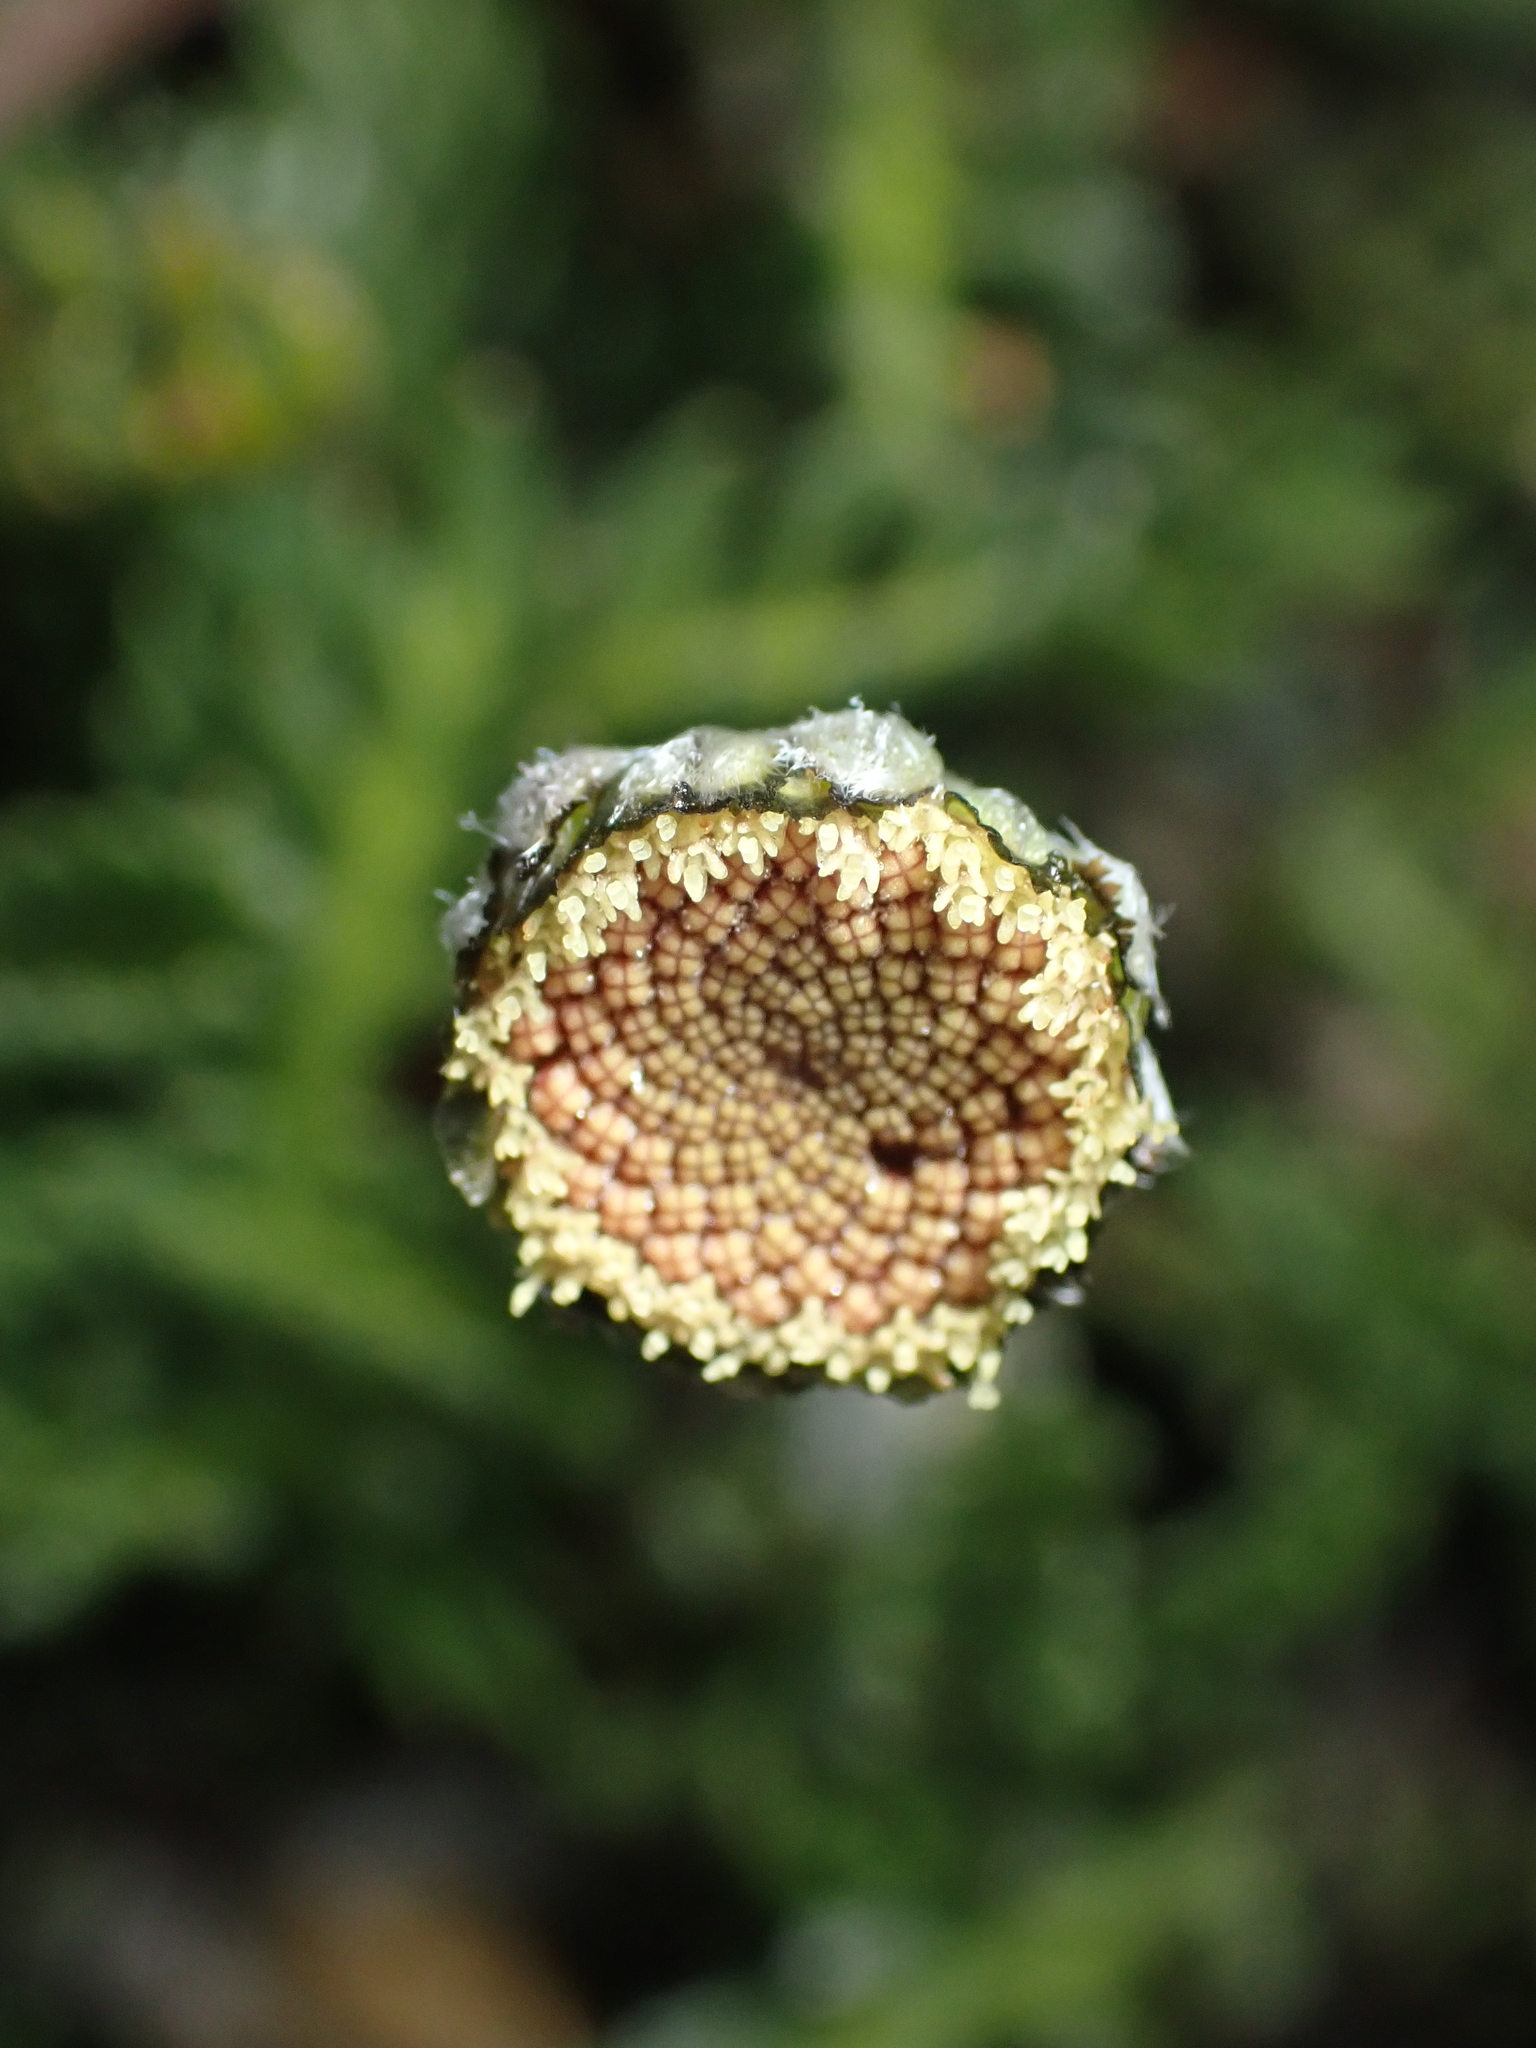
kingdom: Plantae
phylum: Tracheophyta
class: Magnoliopsida
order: Asterales
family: Asteraceae
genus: Leptinella
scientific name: Leptinella pectinata
